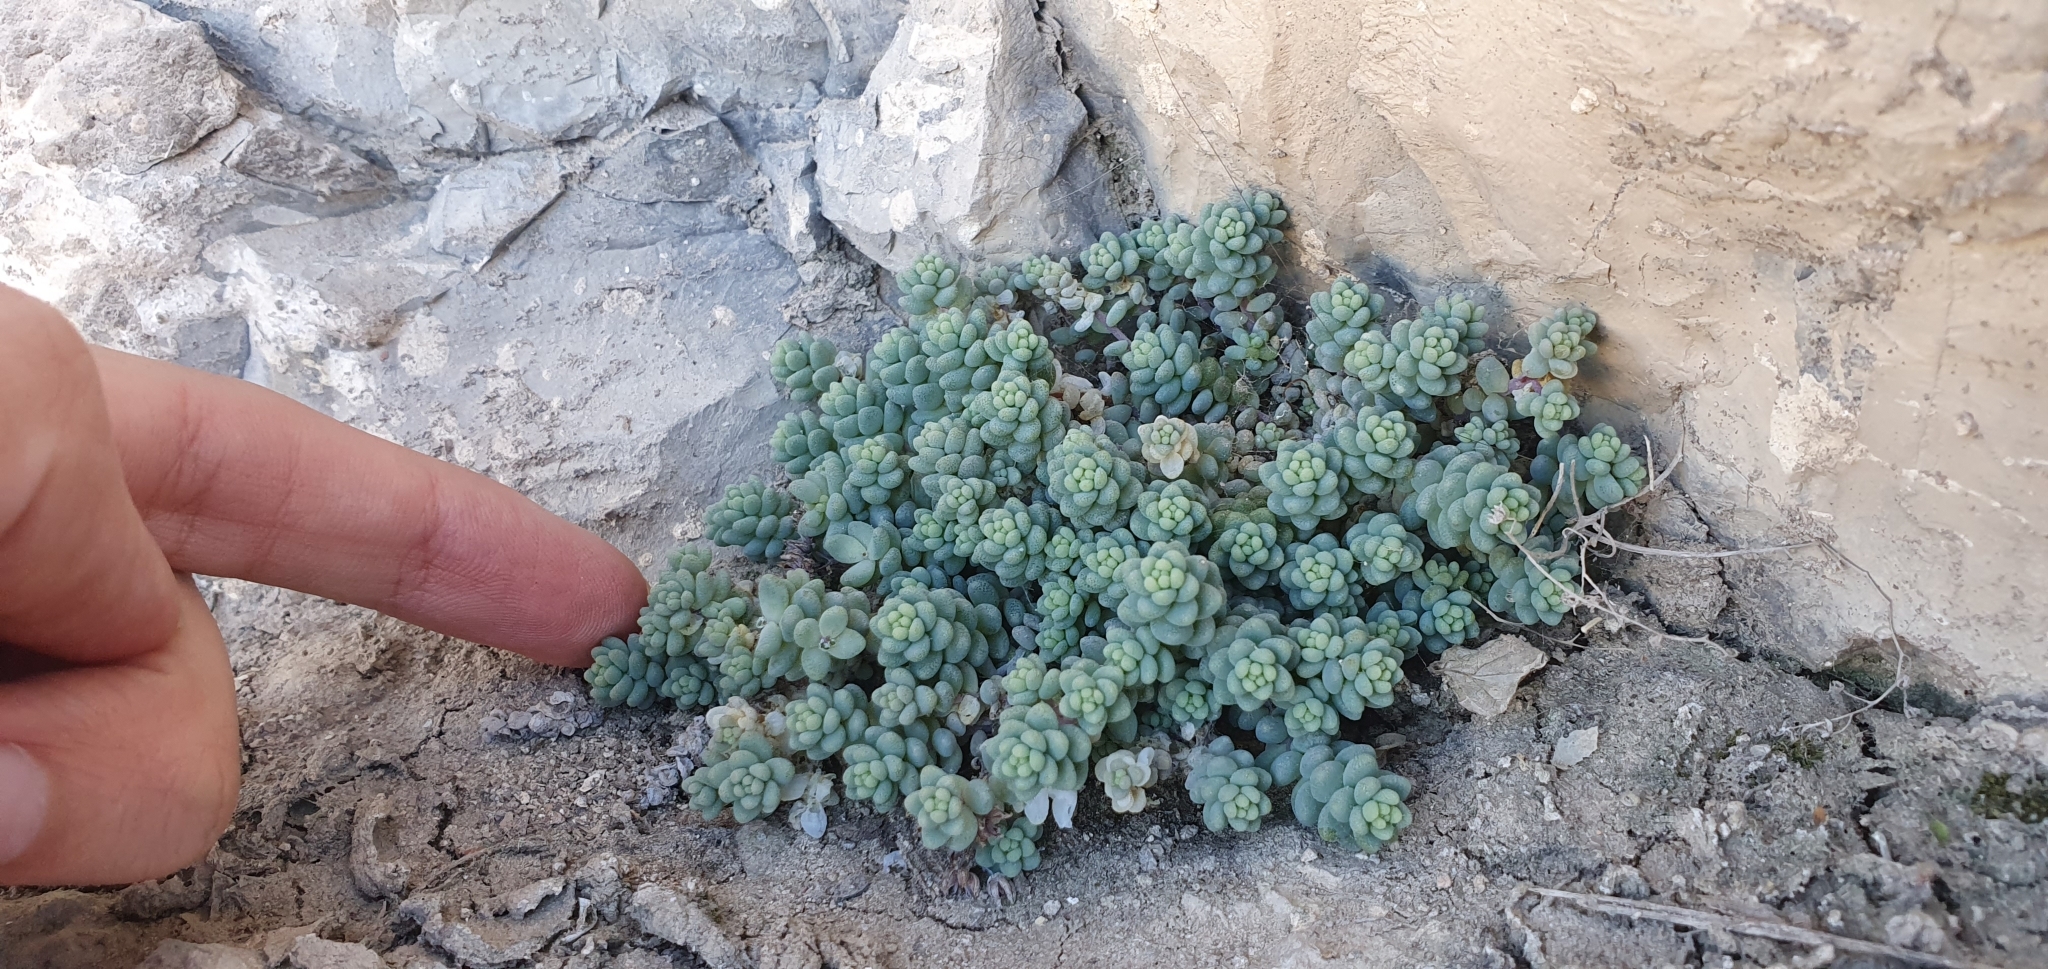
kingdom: Plantae
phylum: Tracheophyta
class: Magnoliopsida
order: Saxifragales
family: Crassulaceae
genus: Sedum
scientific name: Sedum dasyphyllum
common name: Thick-leaf stonecrop
